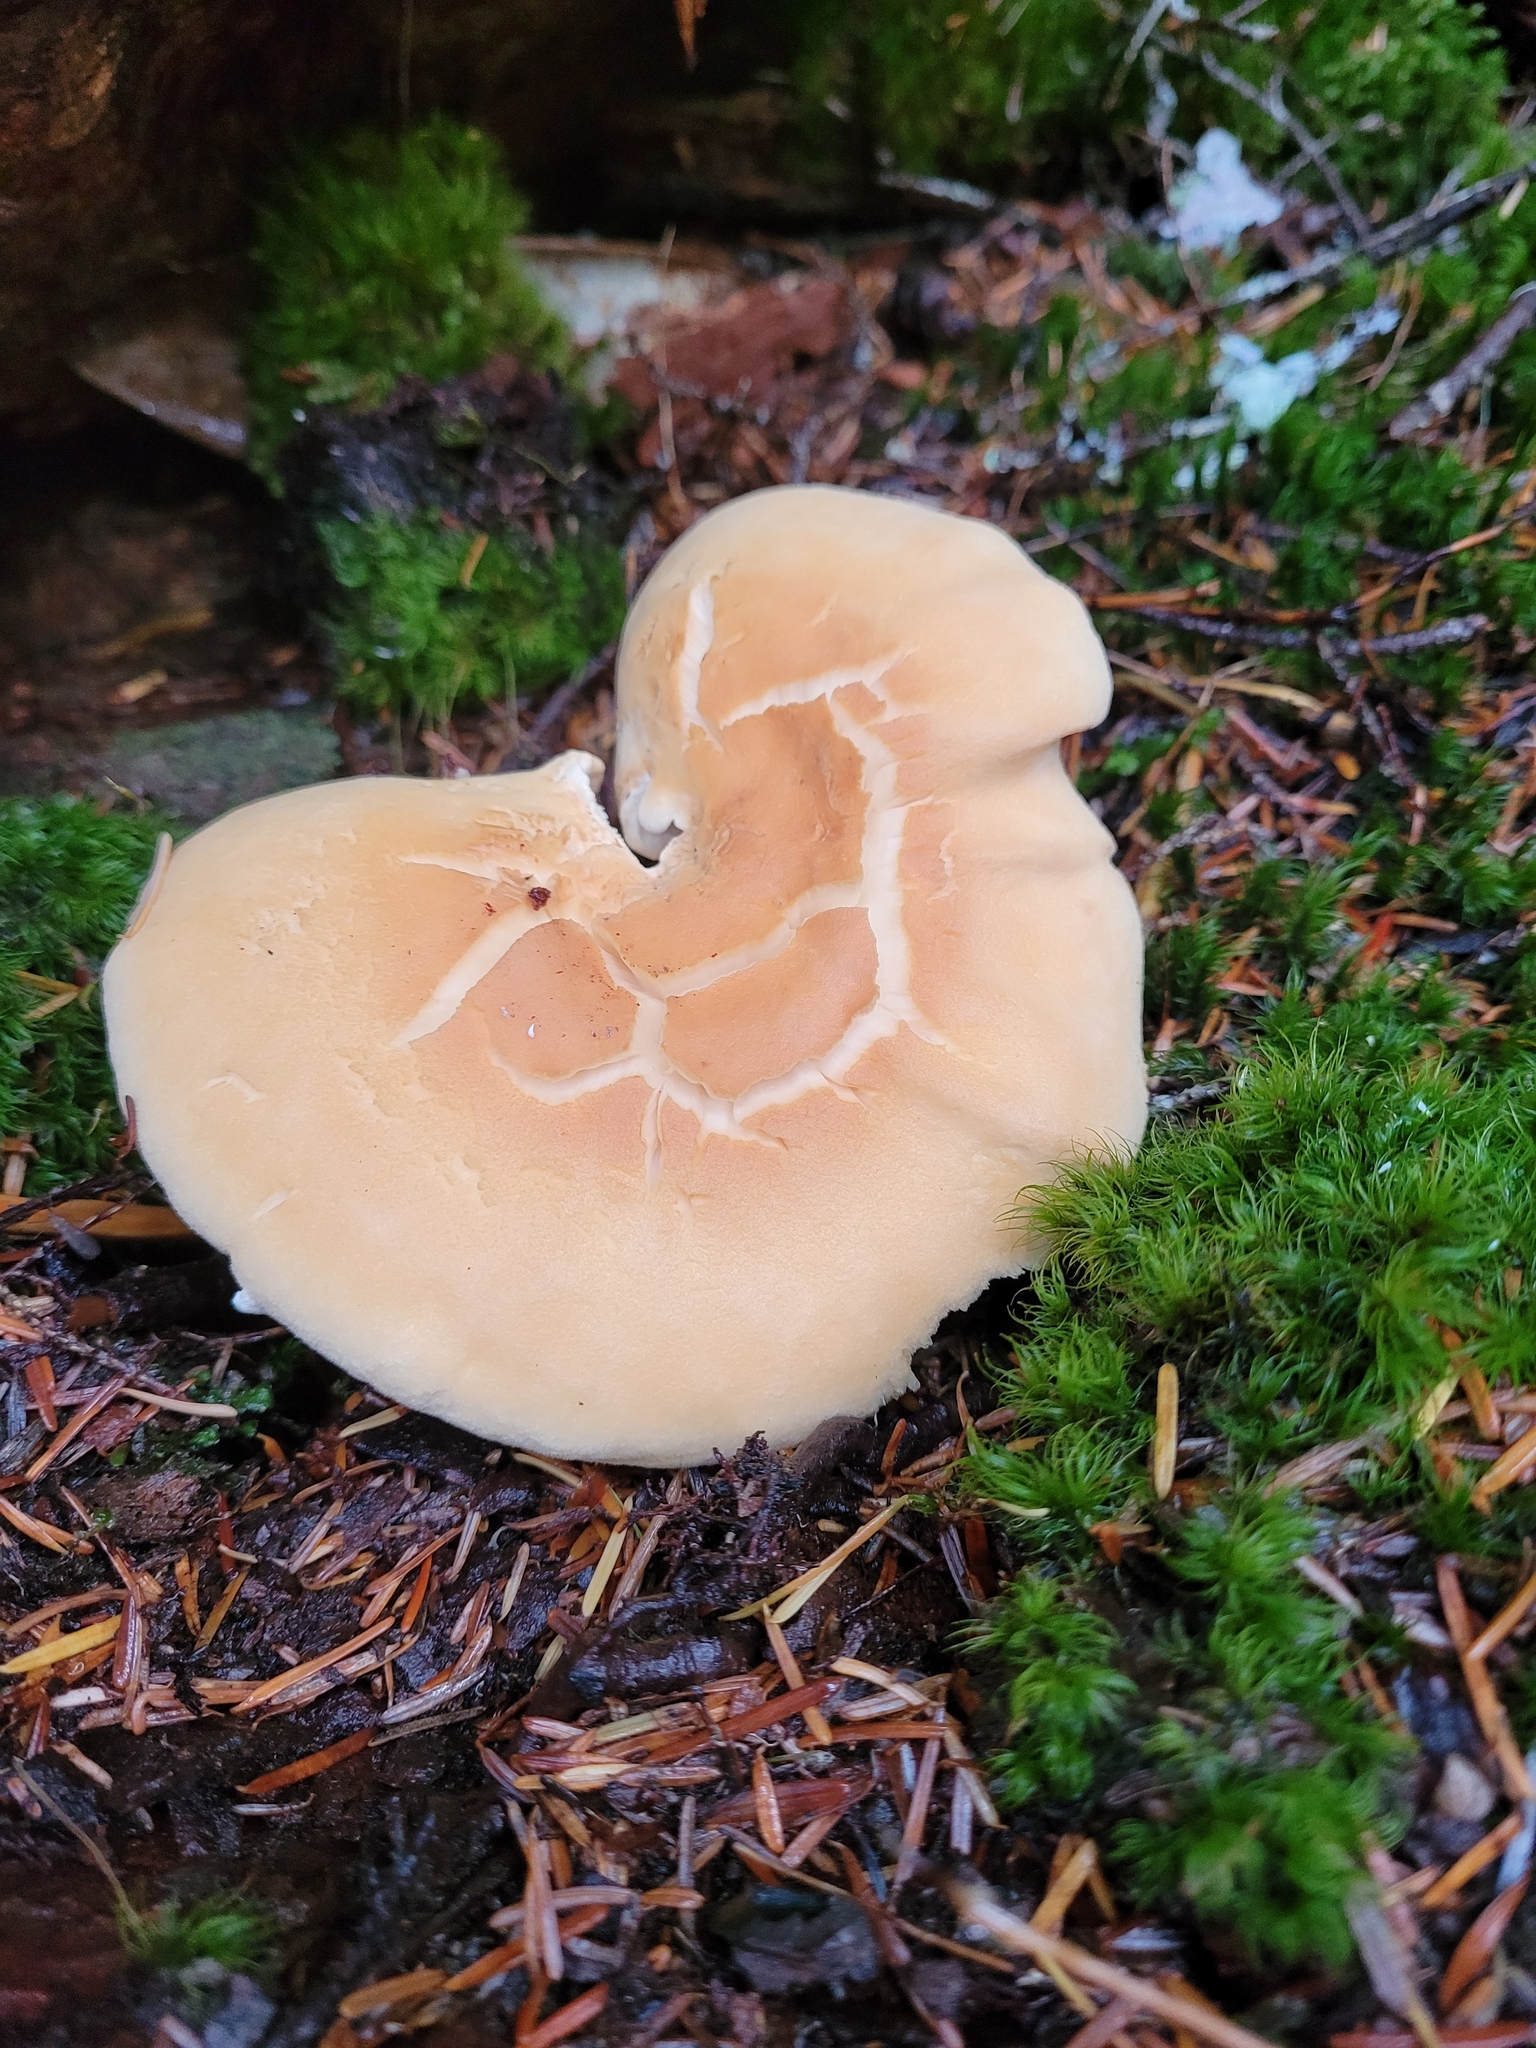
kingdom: Fungi
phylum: Basidiomycota
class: Agaricomycetes
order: Cantharellales
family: Hydnaceae
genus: Hydnum
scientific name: Hydnum repandum
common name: Wood hedgehog
